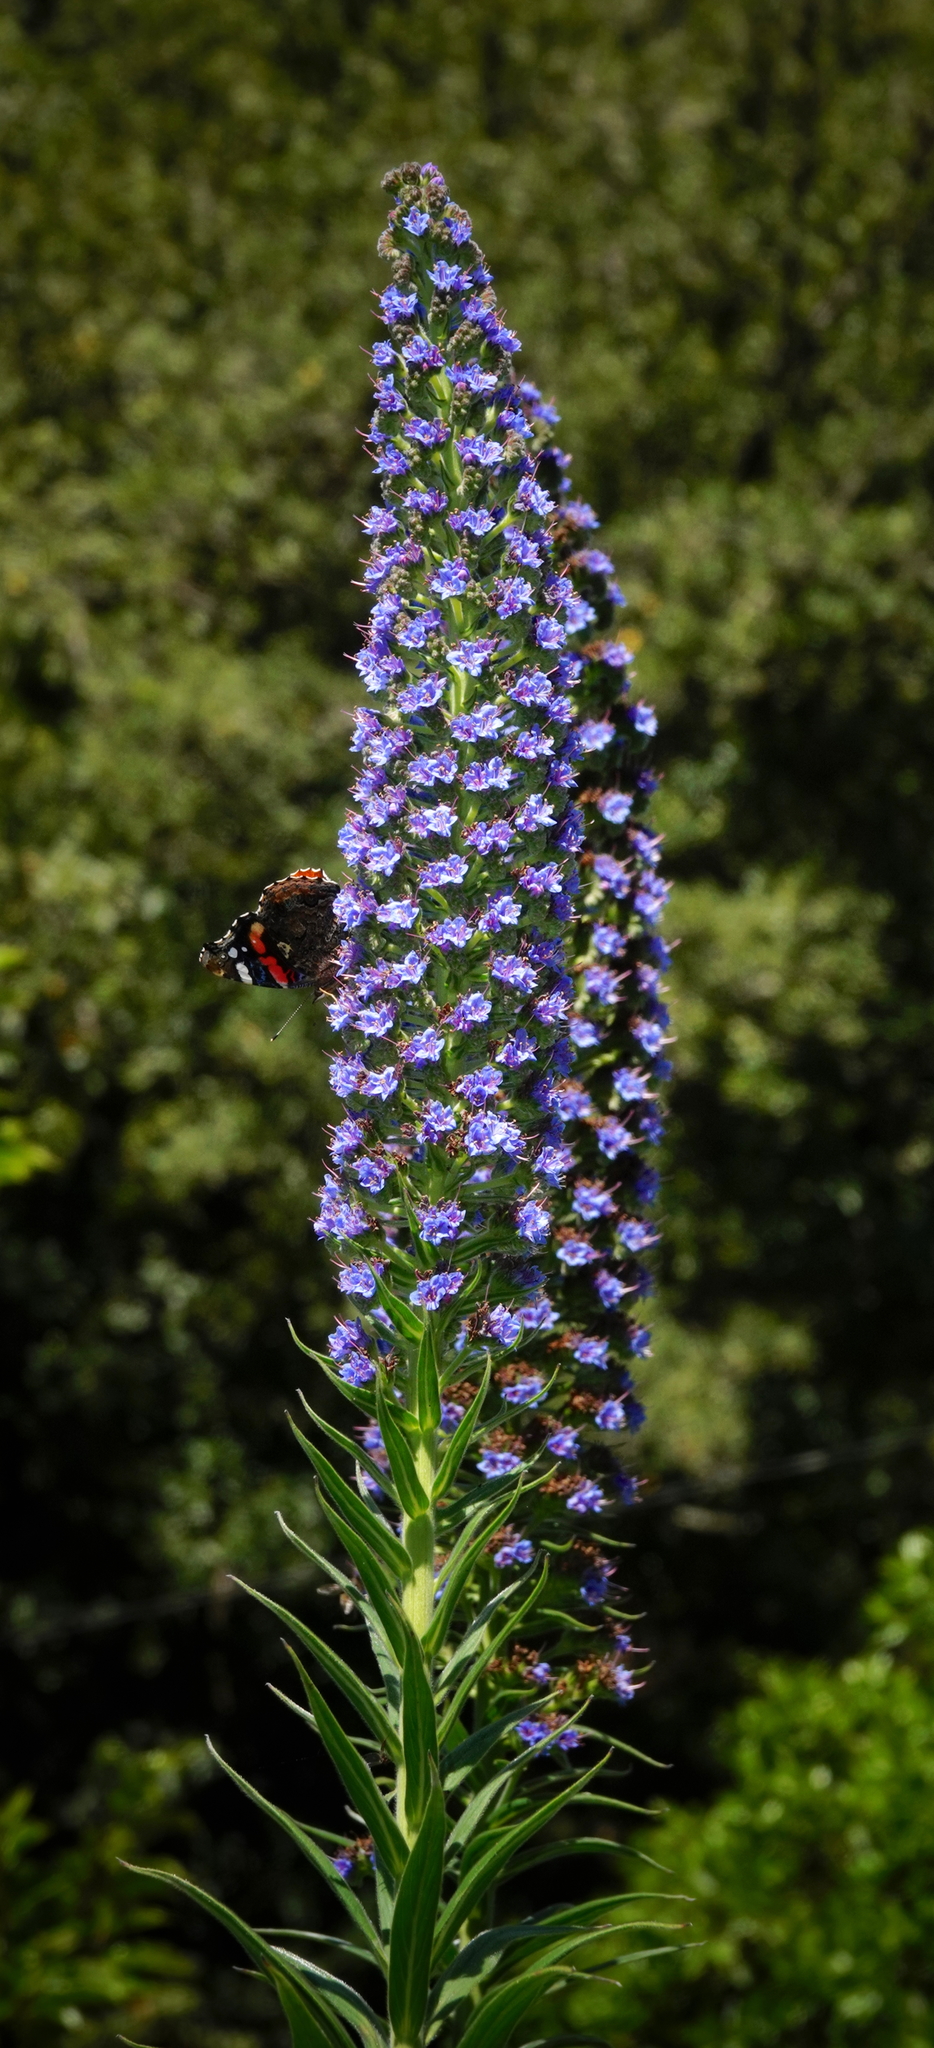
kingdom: Plantae
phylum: Tracheophyta
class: Magnoliopsida
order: Boraginales
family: Boraginaceae
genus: Echium
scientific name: Echium candicans
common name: Pride of madeira
